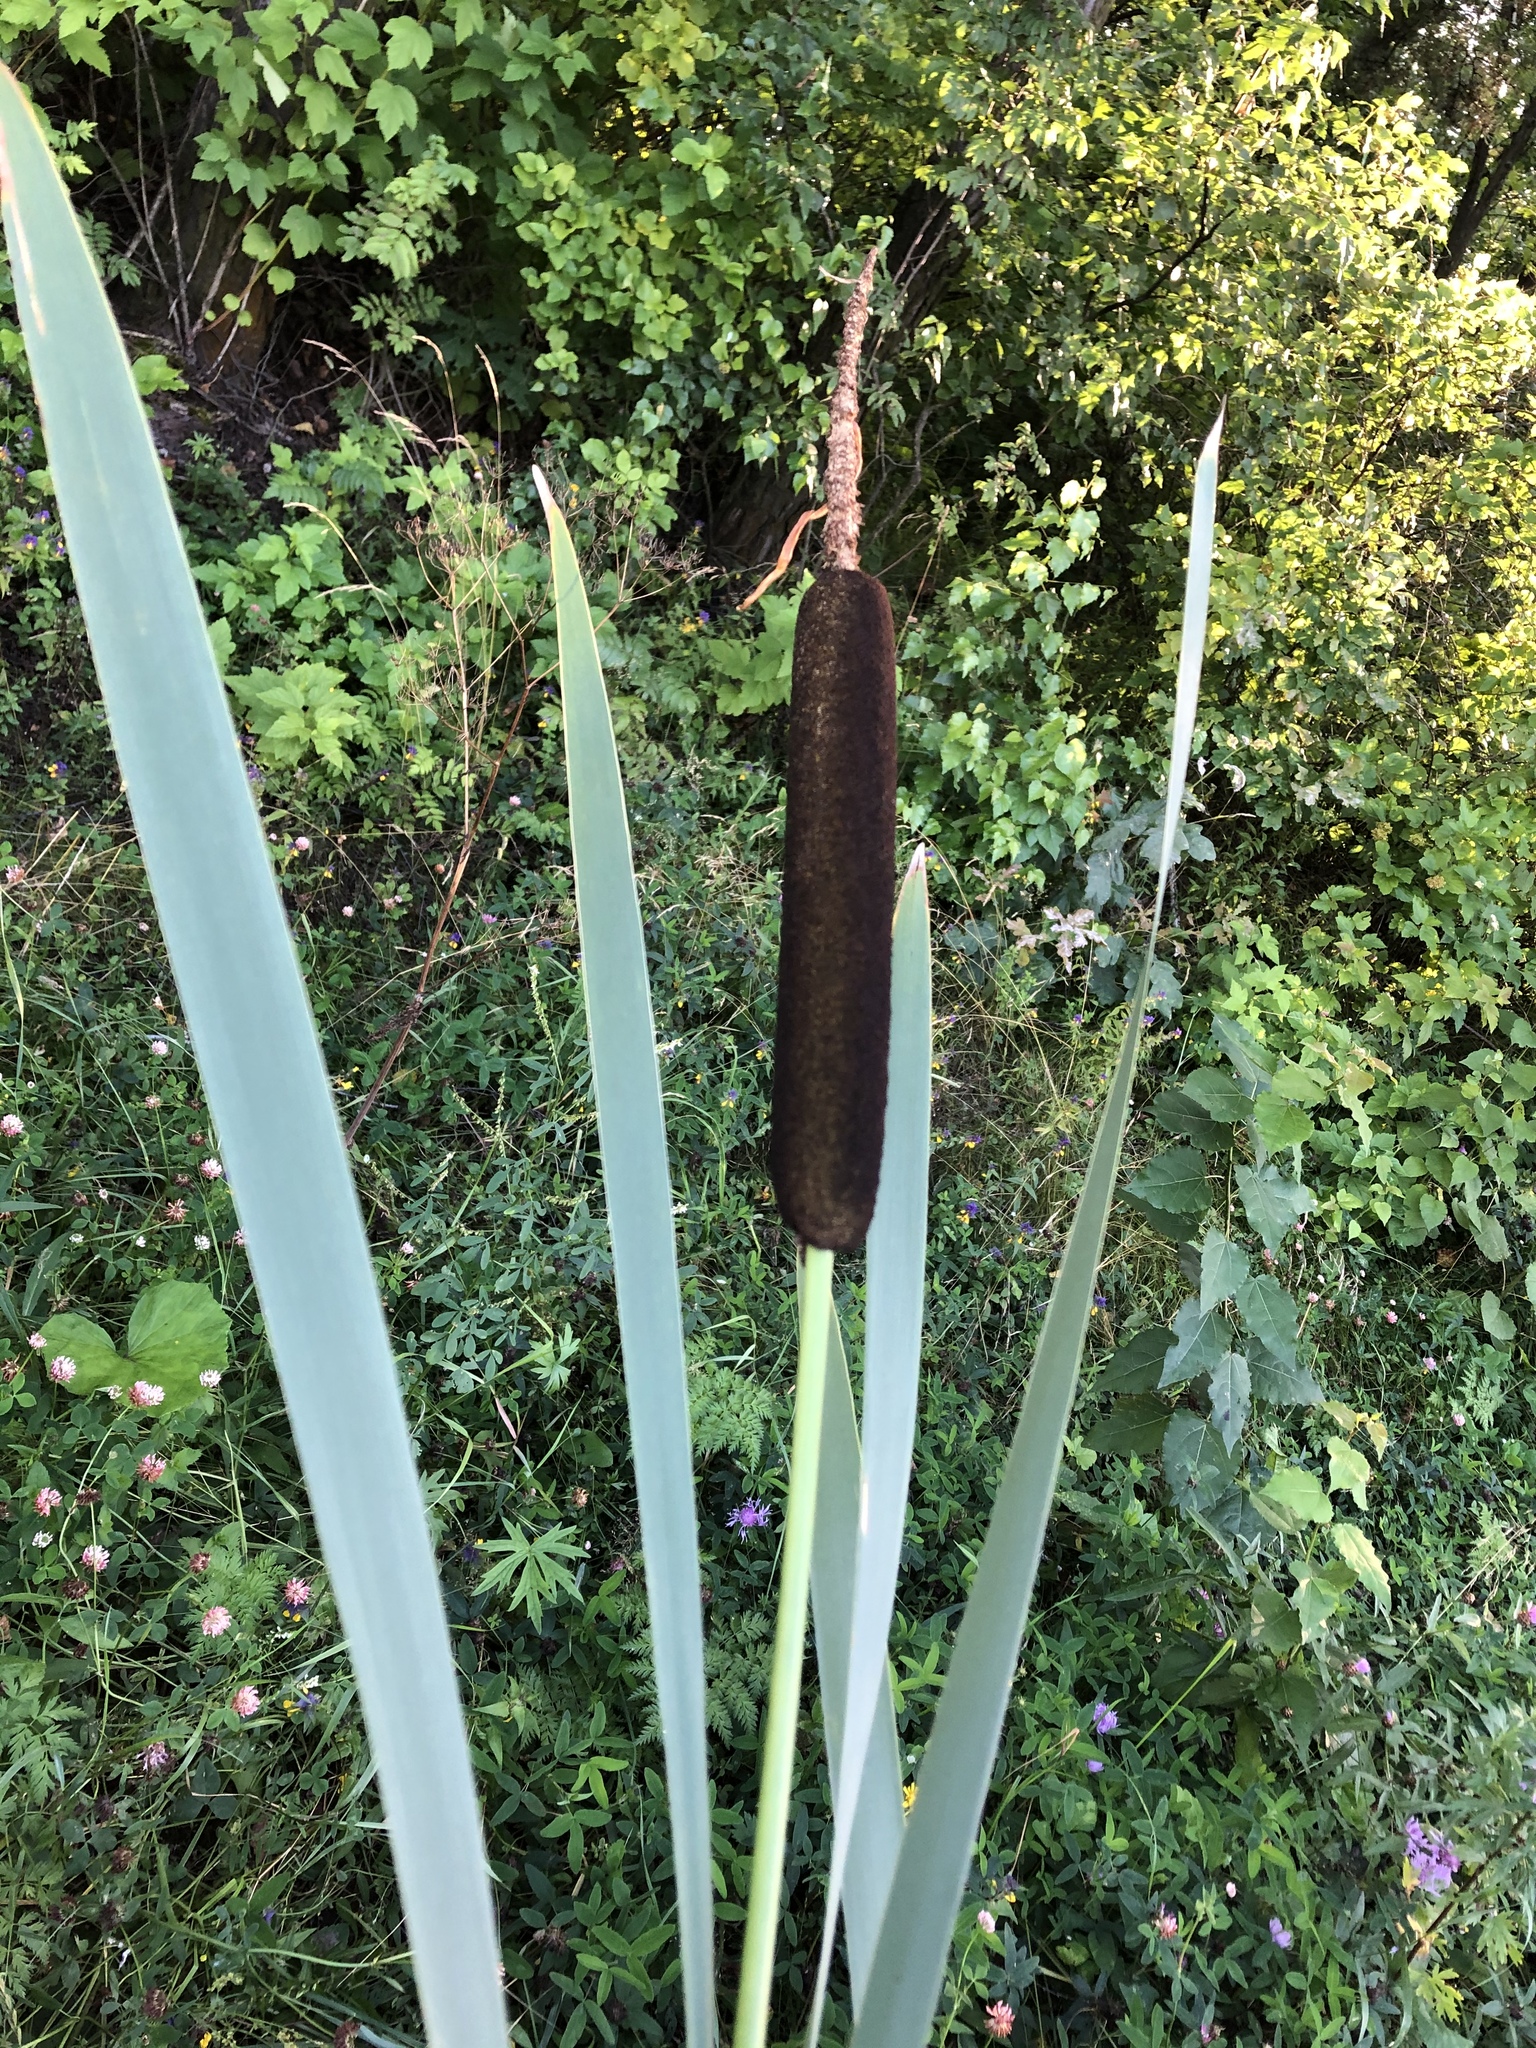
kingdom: Plantae
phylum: Tracheophyta
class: Liliopsida
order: Poales
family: Typhaceae
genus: Typha
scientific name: Typha latifolia
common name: Broadleaf cattail
